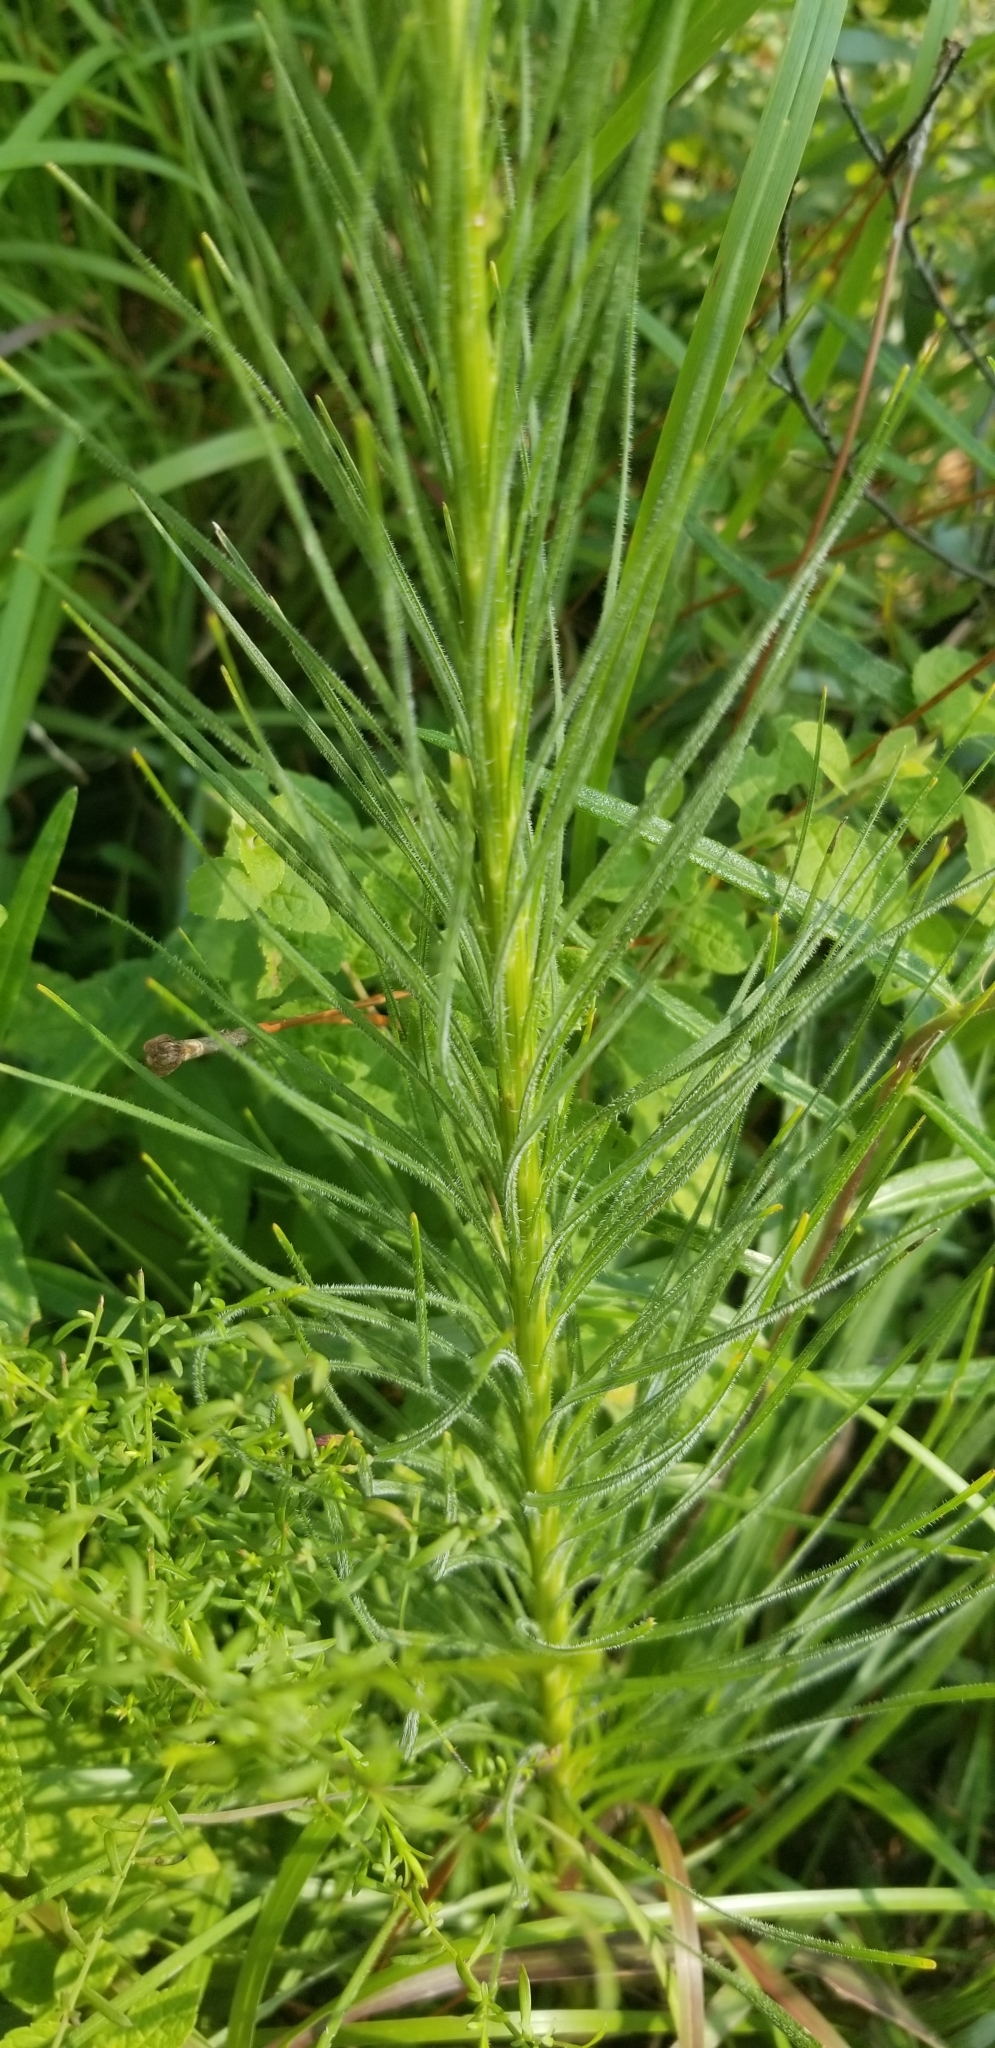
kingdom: Plantae
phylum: Tracheophyta
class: Magnoliopsida
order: Asterales
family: Asteraceae
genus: Liatris
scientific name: Liatris spicata
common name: Florist gayfeather
